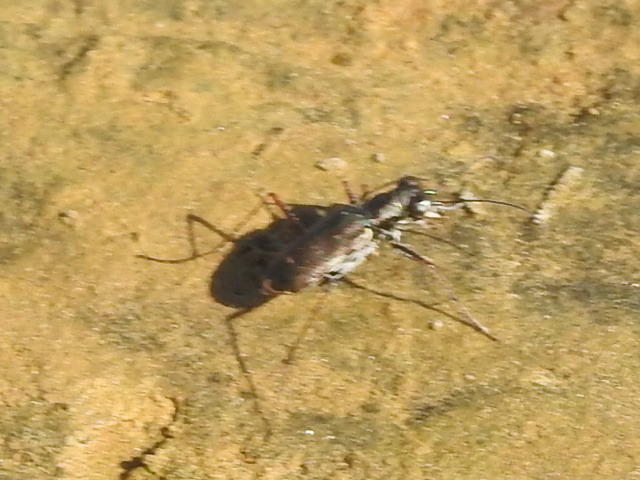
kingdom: Animalia
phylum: Arthropoda
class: Insecta
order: Coleoptera
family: Carabidae
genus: Cicindela
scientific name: Cicindela trifasciata
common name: Mudflat tiger beetle
